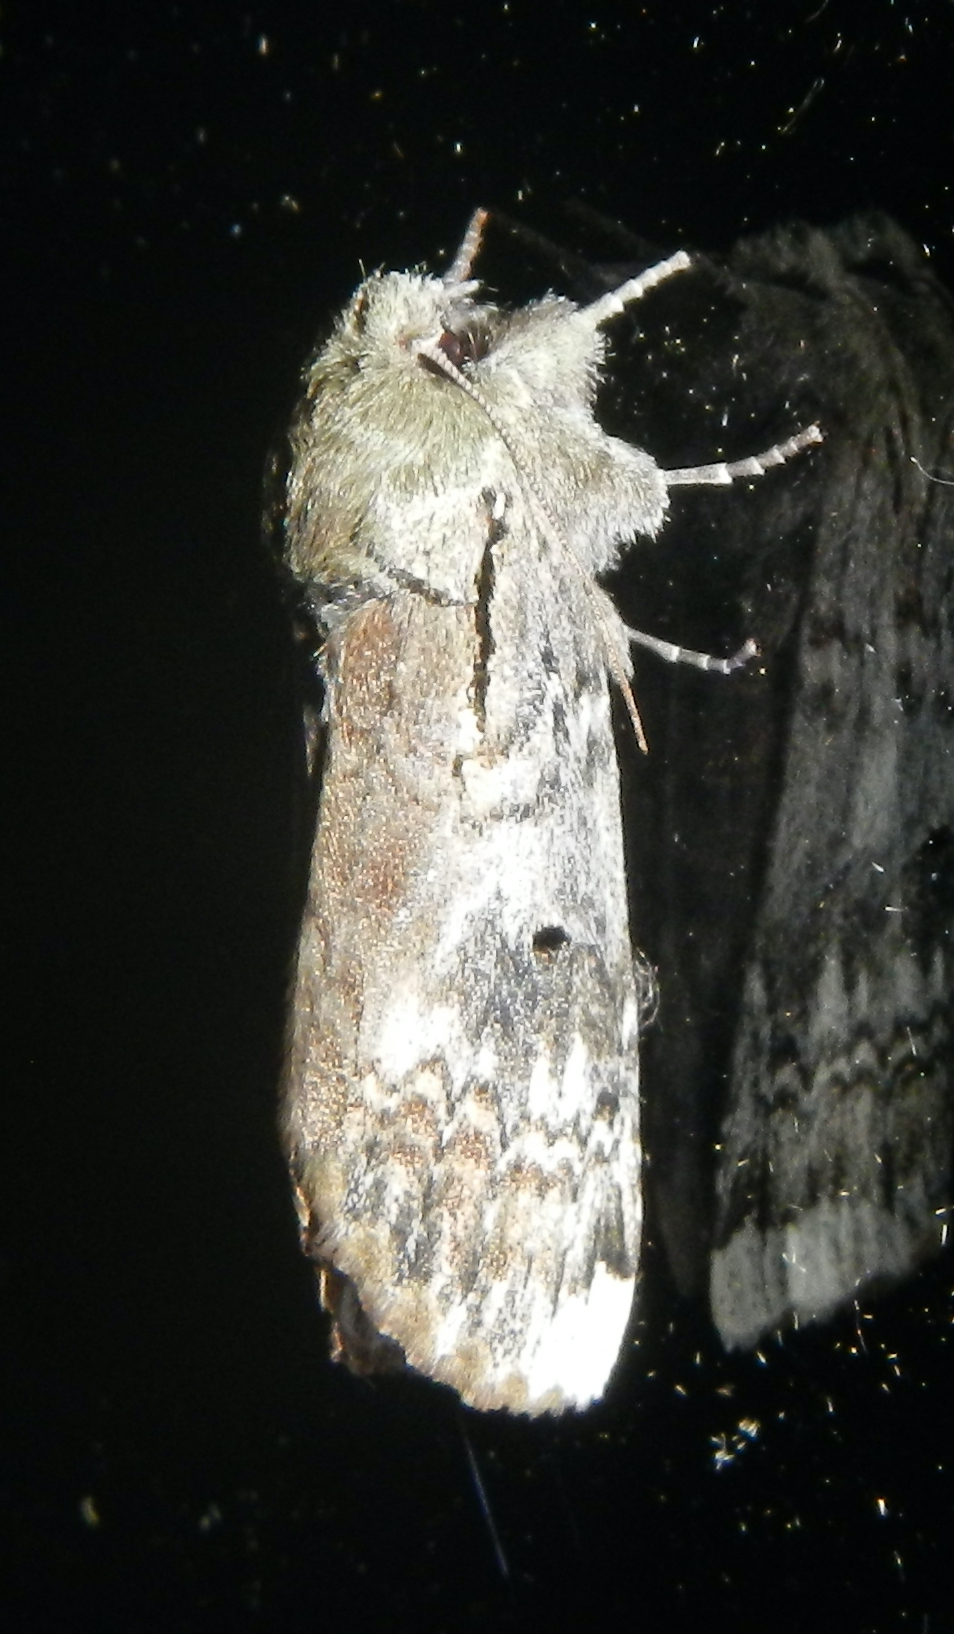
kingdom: Animalia
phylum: Arthropoda
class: Insecta
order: Lepidoptera
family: Notodontidae
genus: Schizura
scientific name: Schizura
